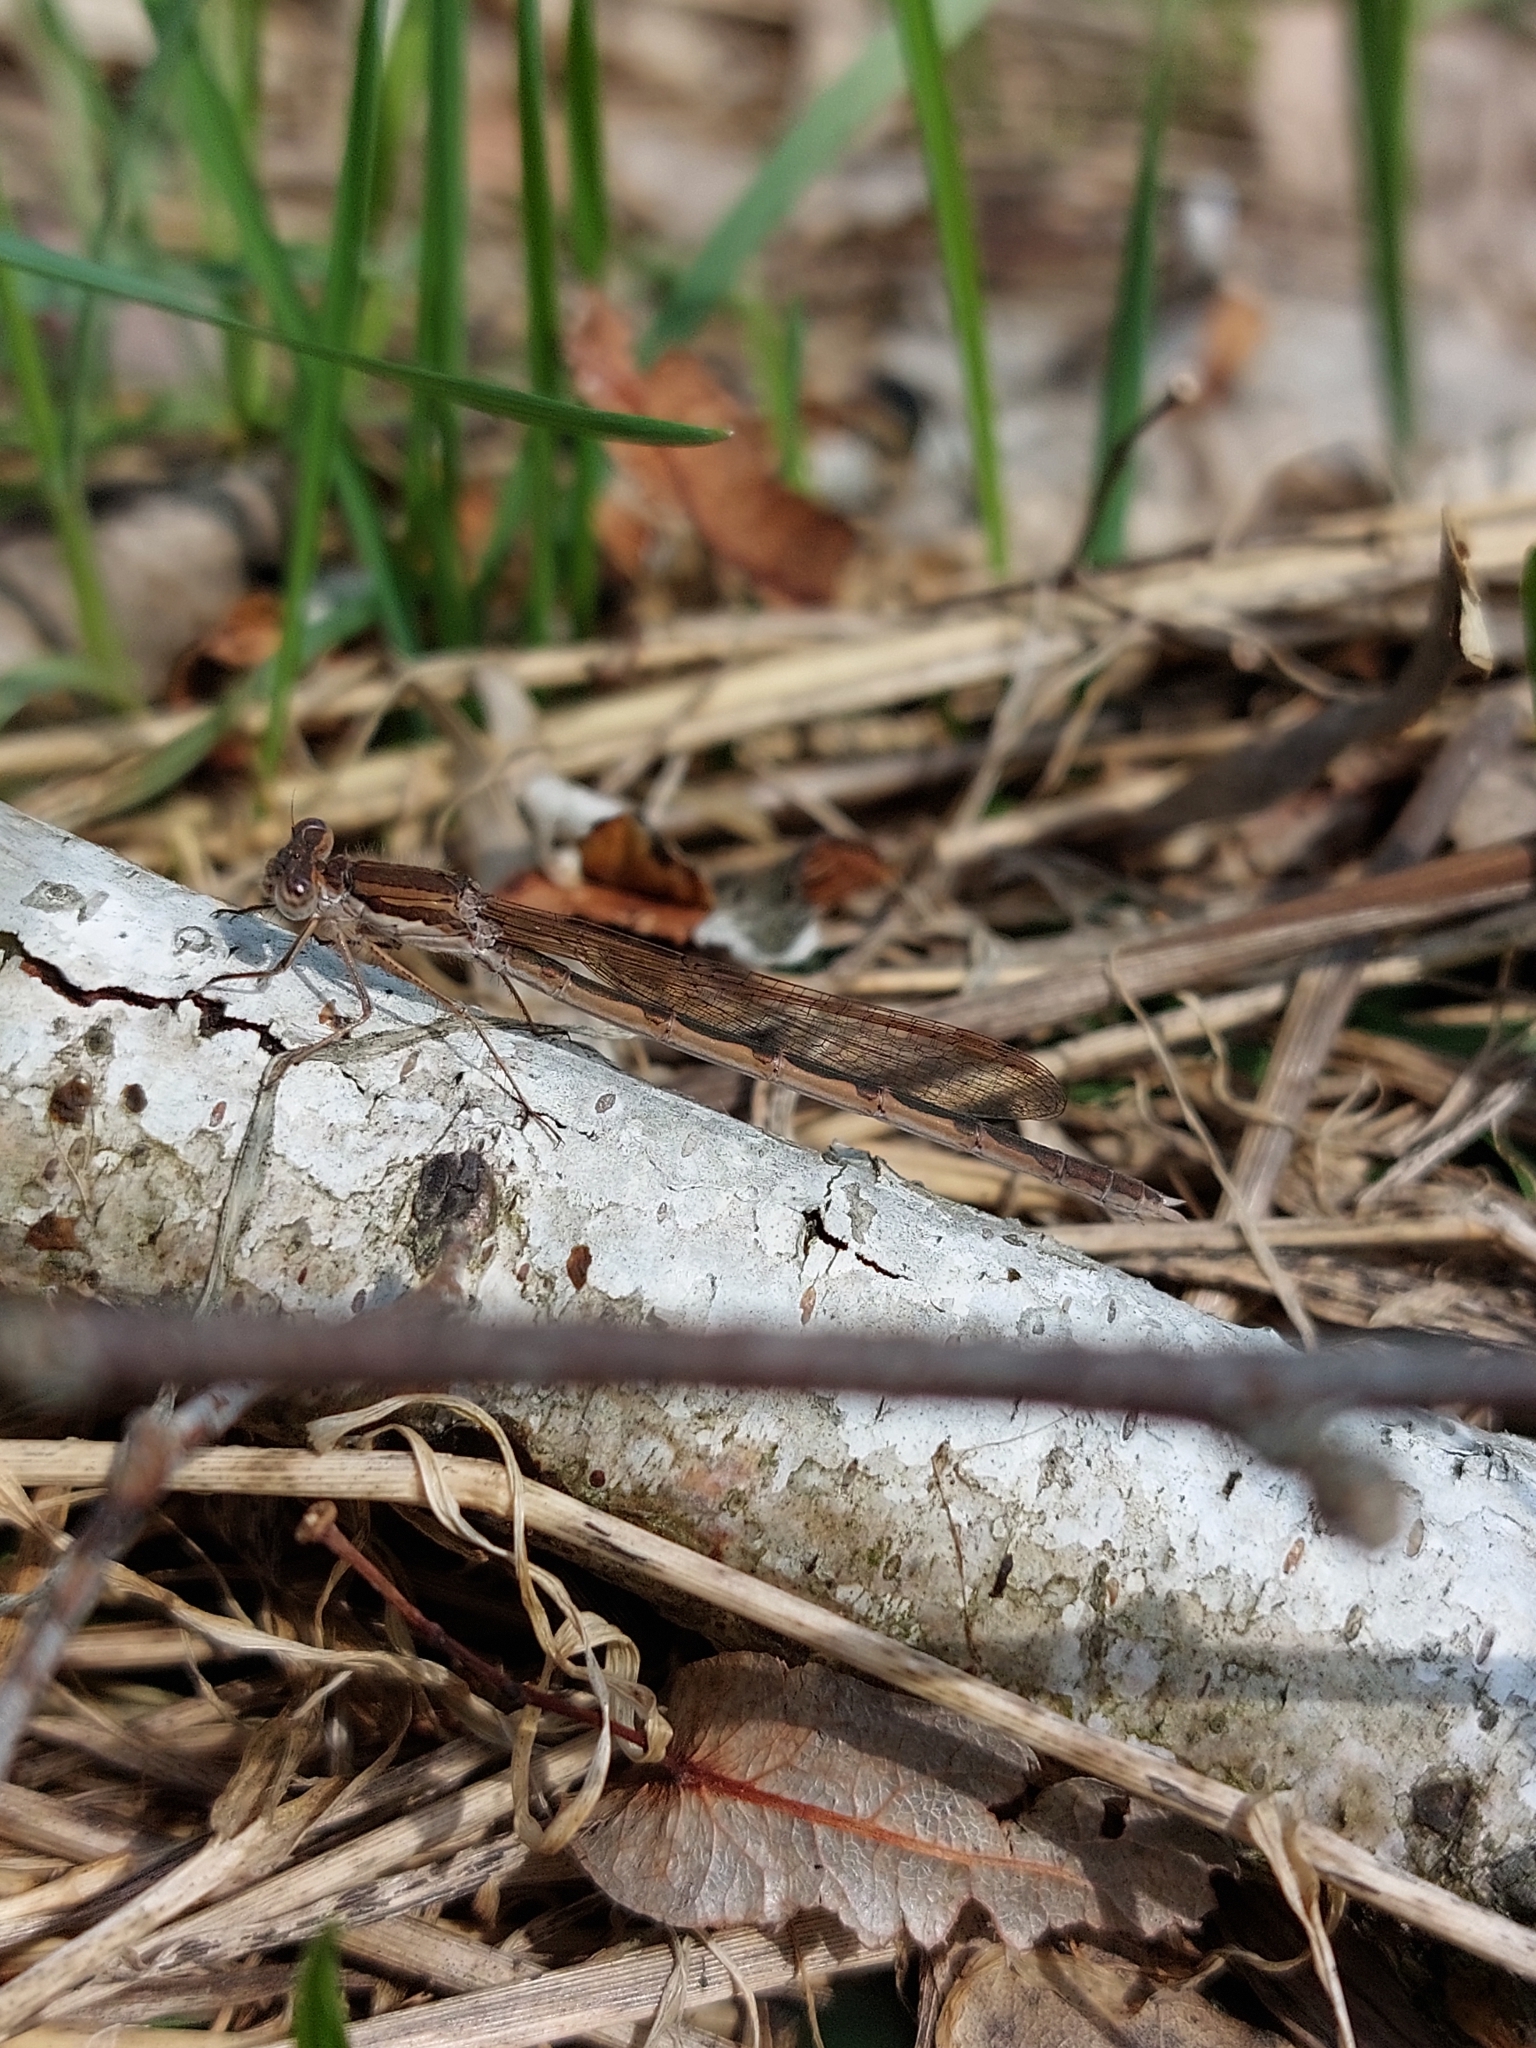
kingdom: Animalia
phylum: Arthropoda
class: Insecta
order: Odonata
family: Lestidae
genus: Sympecma
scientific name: Sympecma fusca
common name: Common winter damsel
